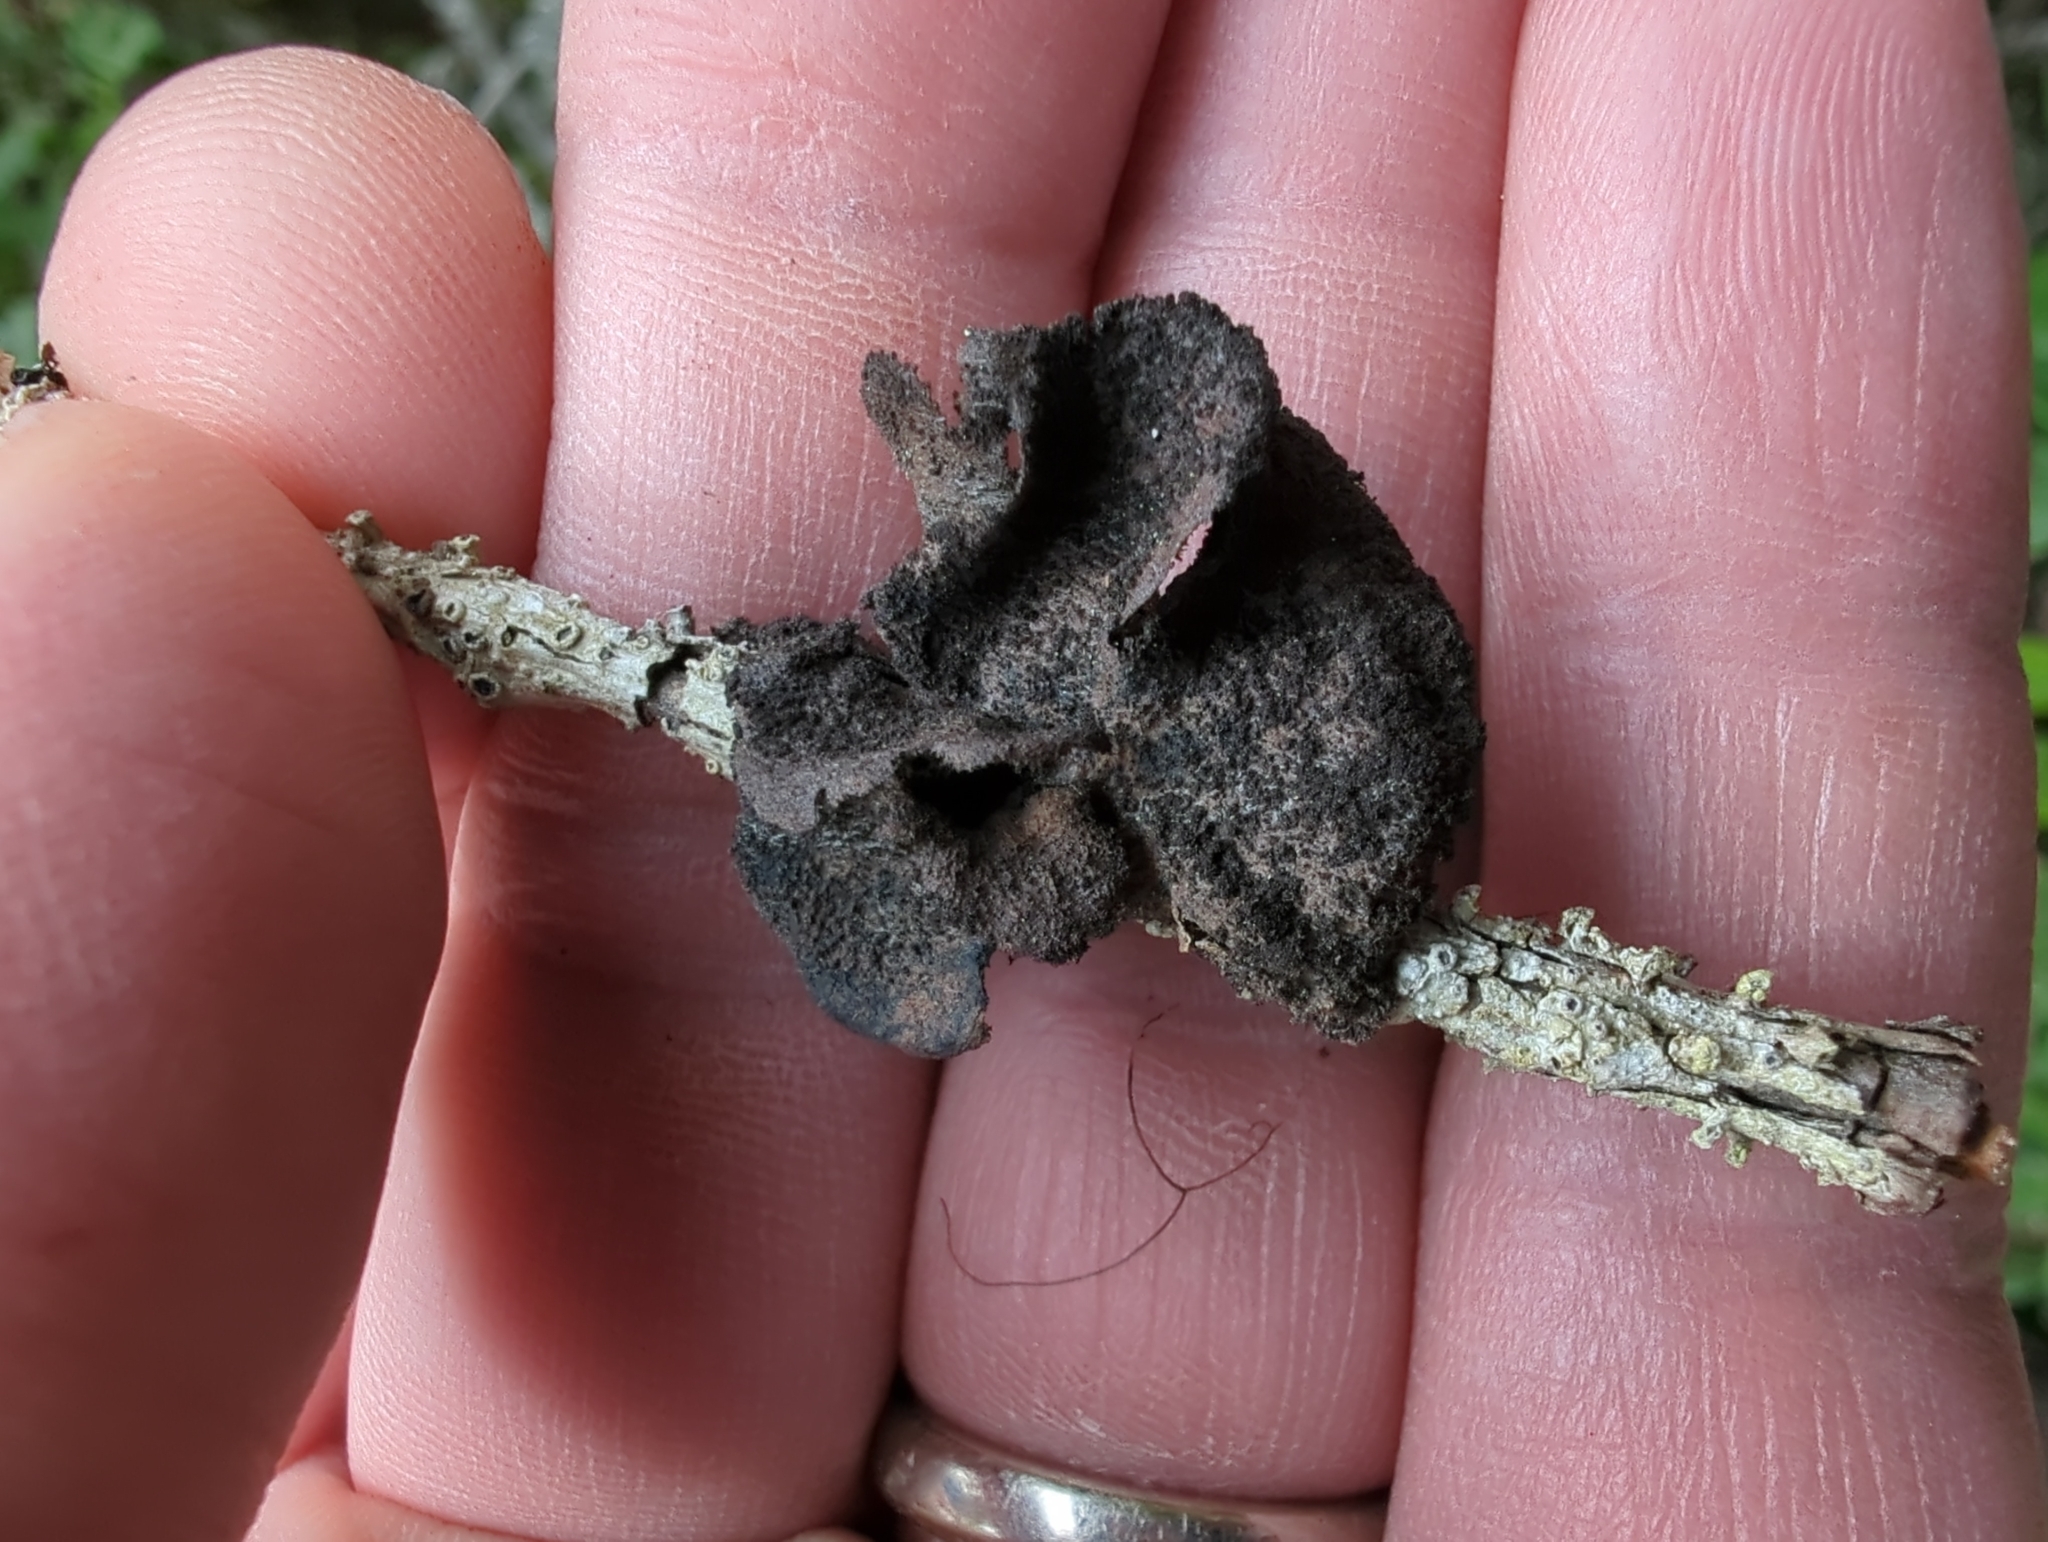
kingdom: Fungi
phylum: Ascomycota
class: Lecanoromycetes
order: Peltigerales
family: Lobariaceae
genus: Sticta
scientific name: Sticta
